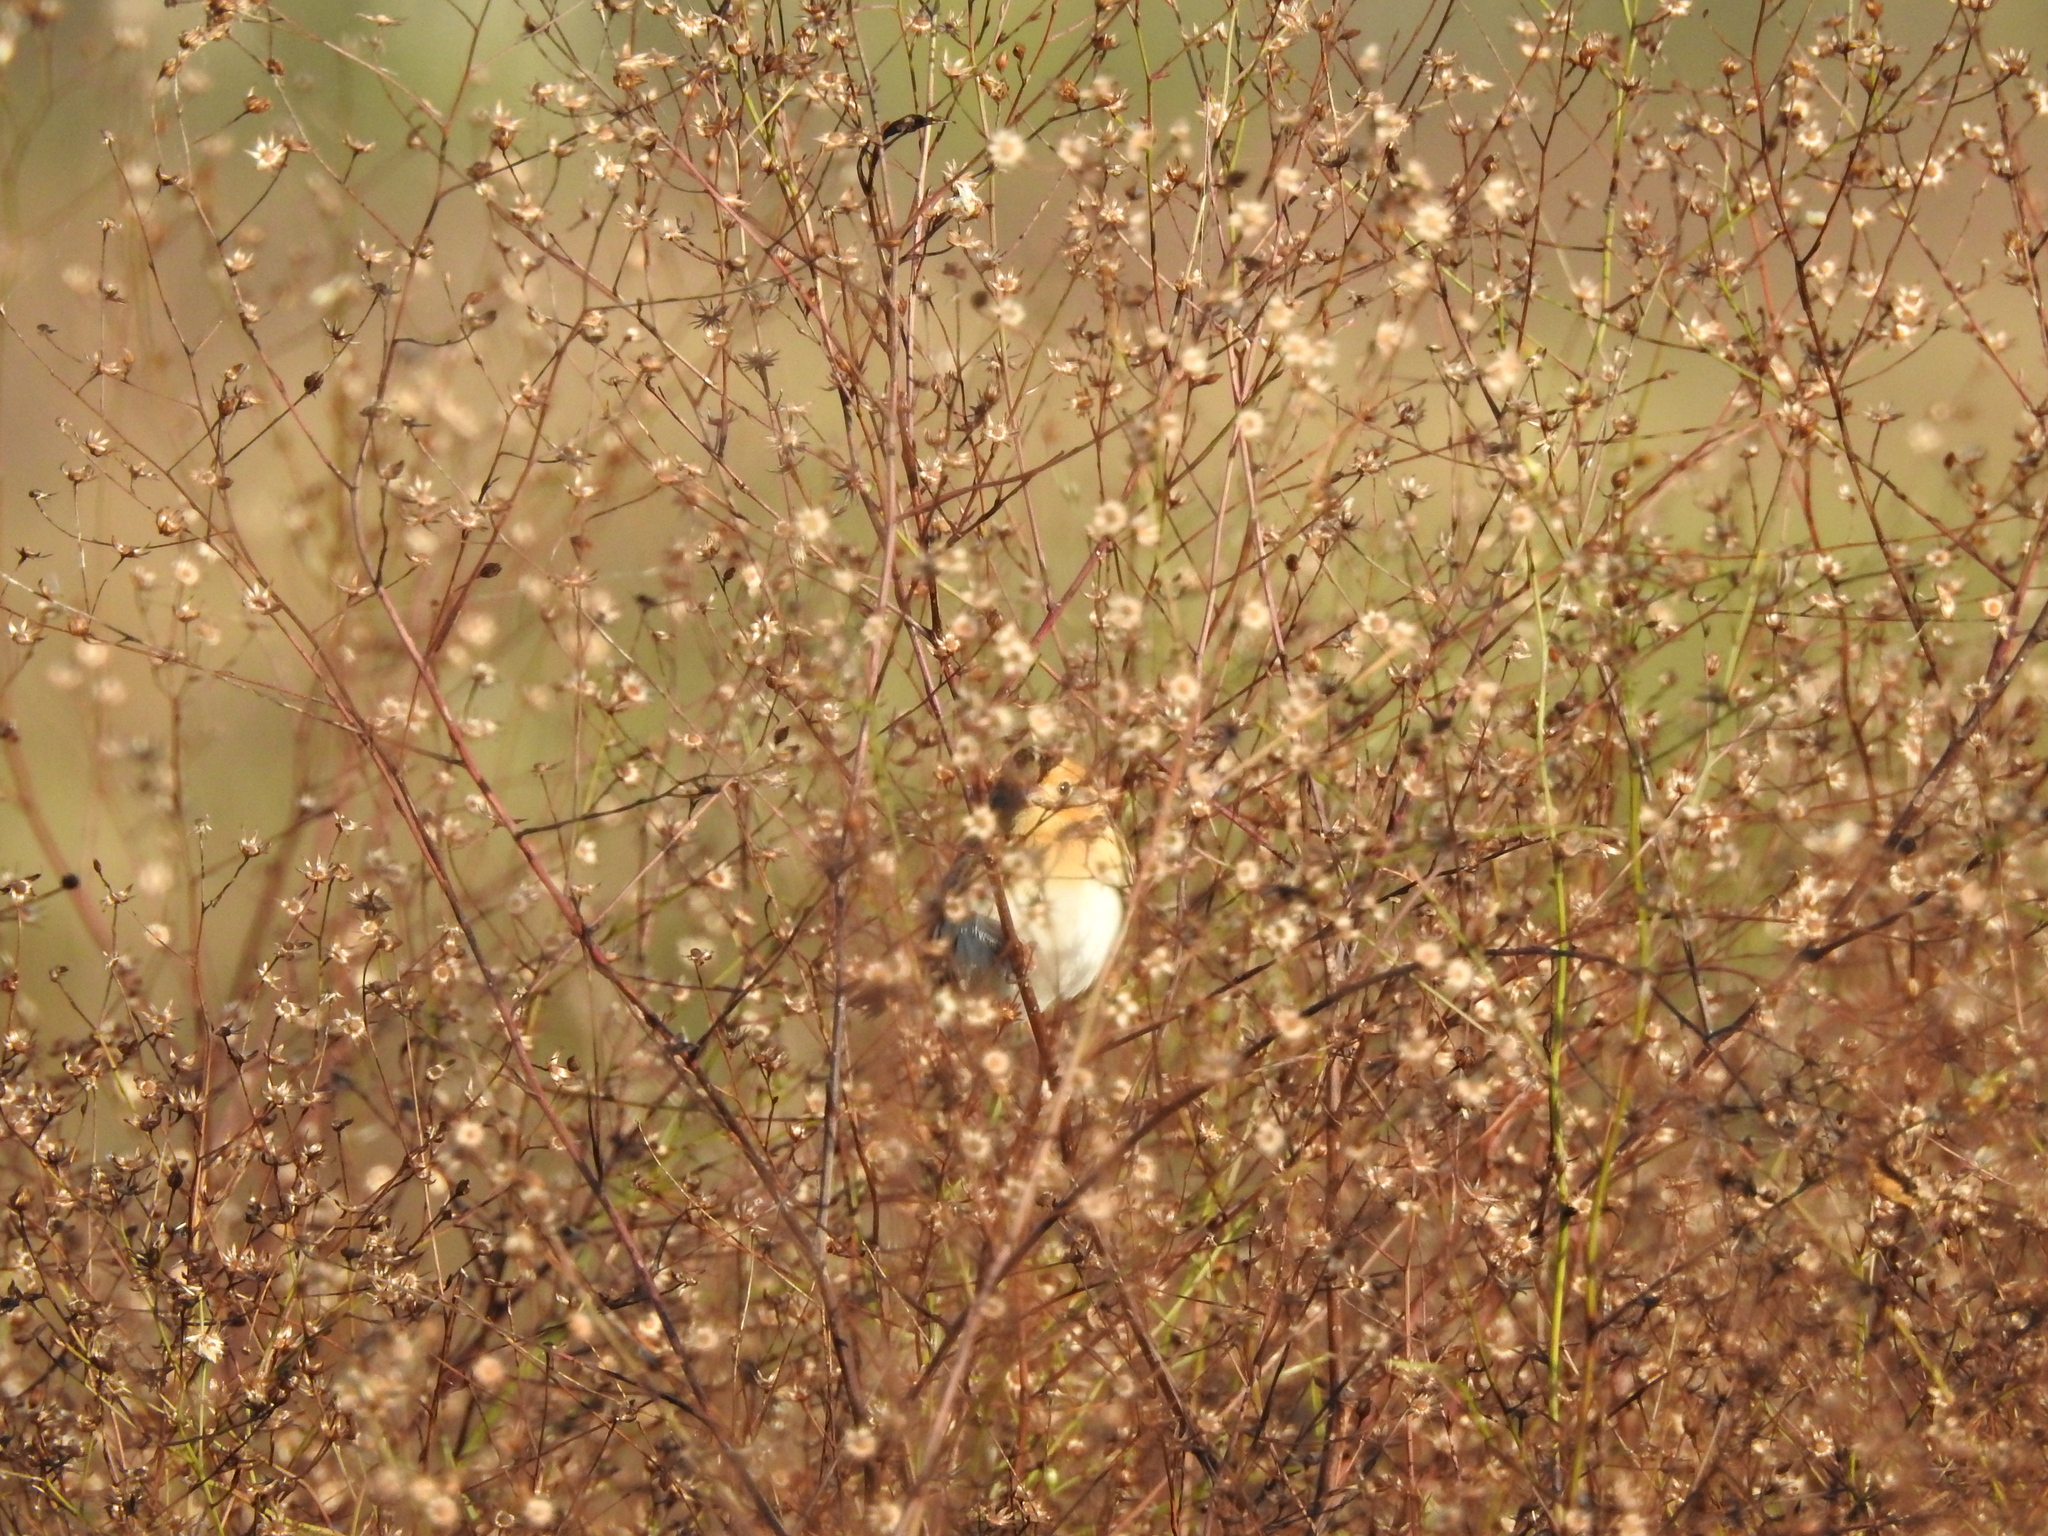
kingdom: Animalia
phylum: Chordata
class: Aves
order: Passeriformes
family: Passerellidae
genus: Ammospiza
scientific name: Ammospiza leconteii
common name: Le conte's sparrow
